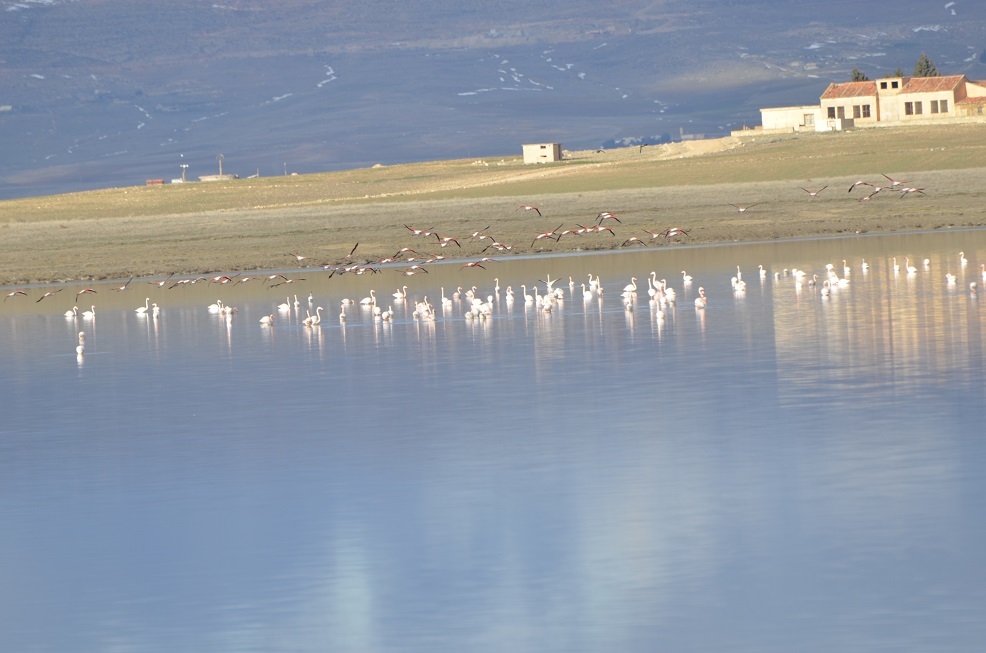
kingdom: Animalia
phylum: Chordata
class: Aves
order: Phoenicopteriformes
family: Phoenicopteridae
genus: Phoenicopterus
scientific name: Phoenicopterus roseus
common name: Greater flamingo
